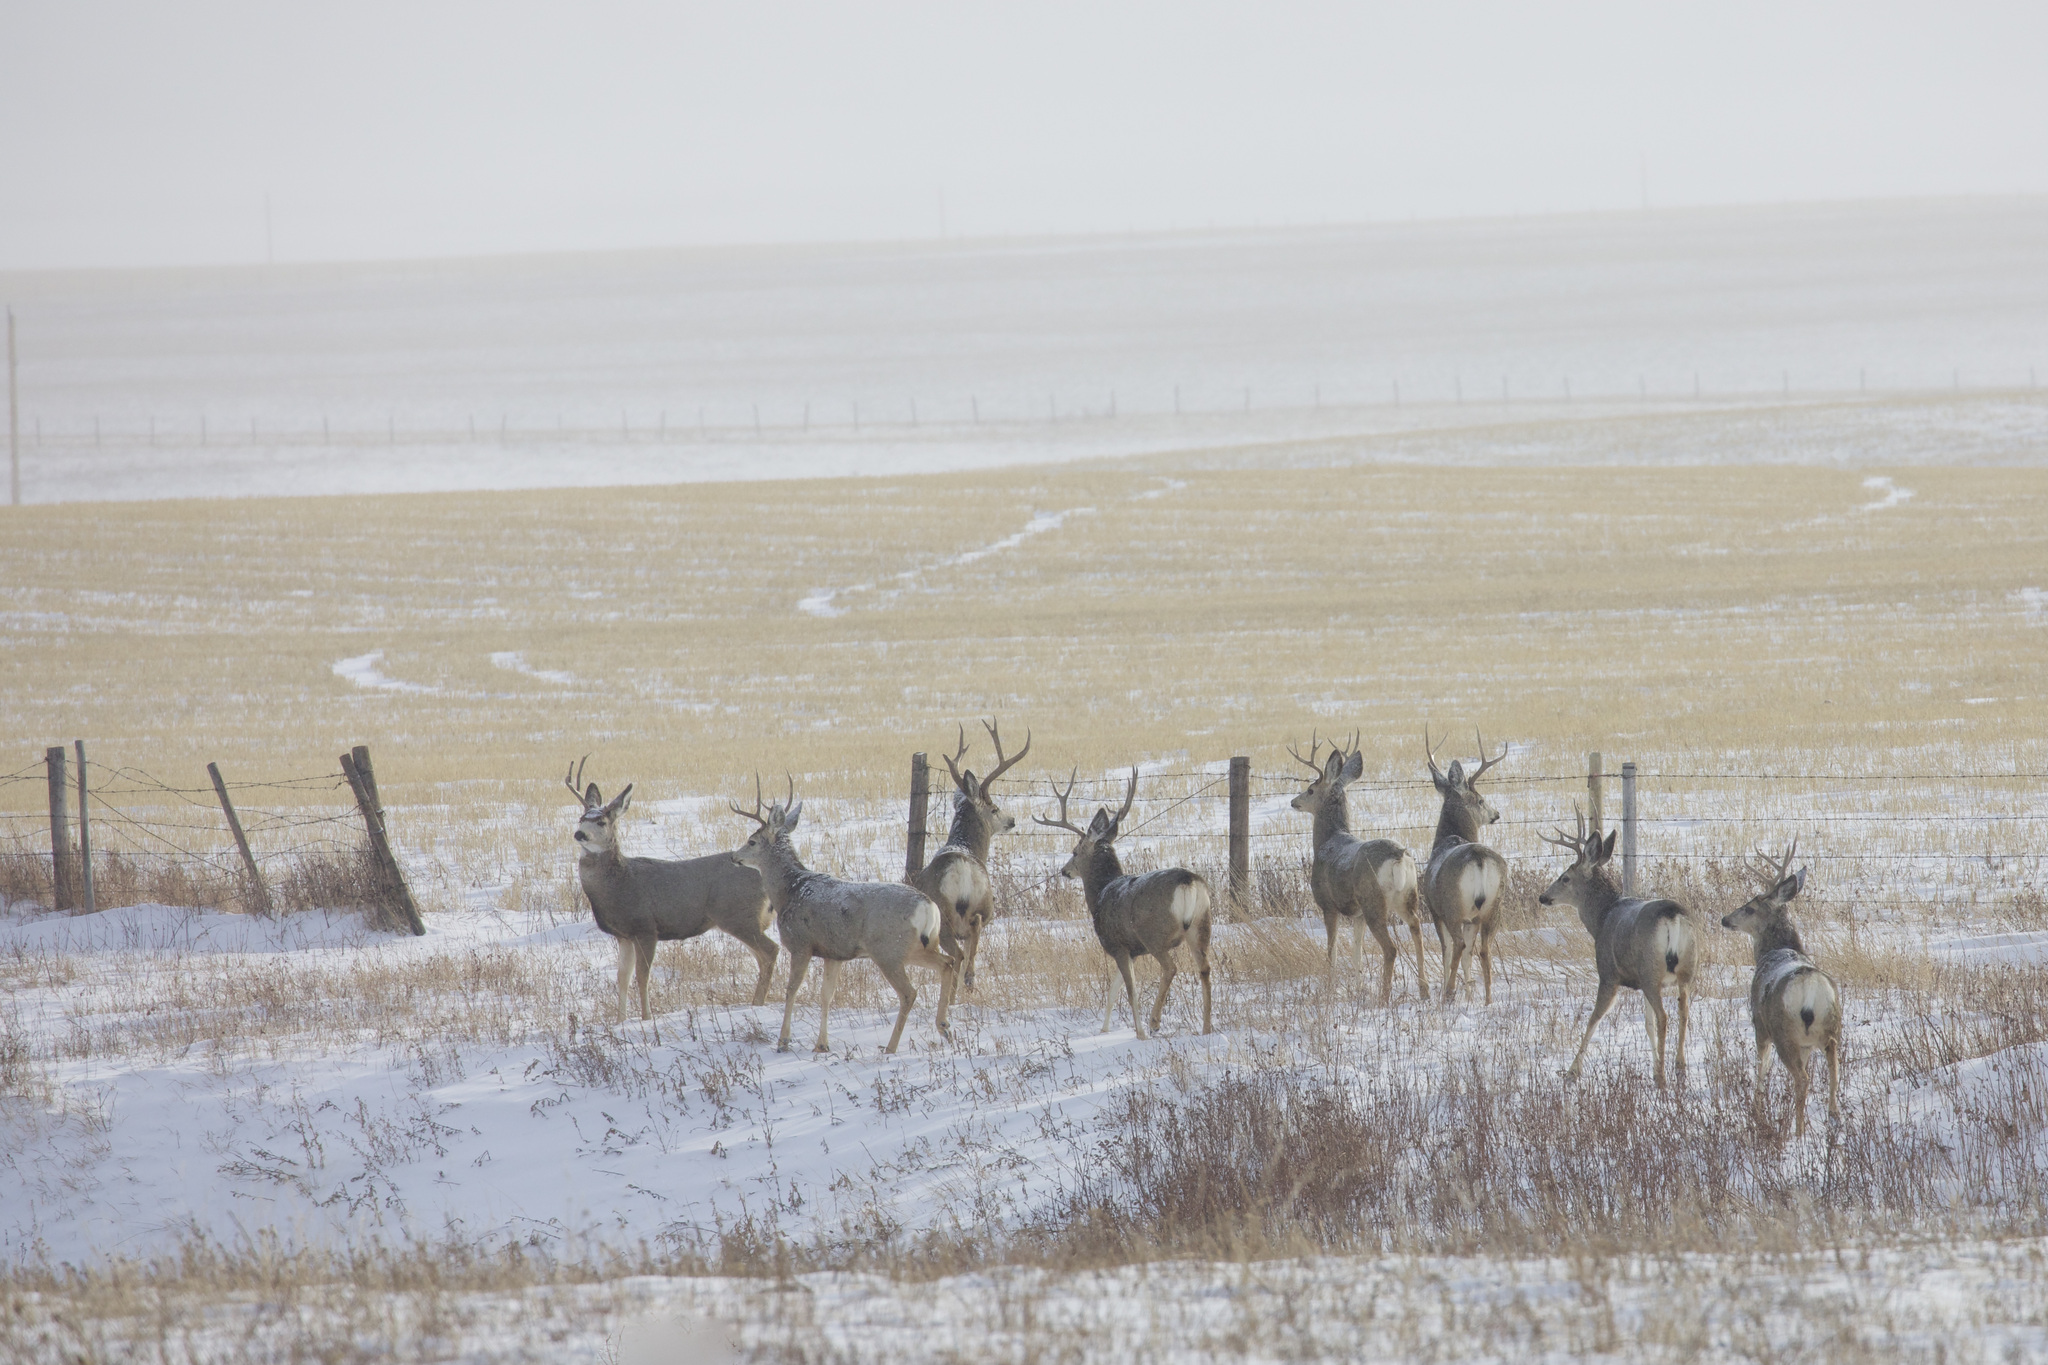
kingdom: Animalia
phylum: Chordata
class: Mammalia
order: Artiodactyla
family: Cervidae
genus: Odocoileus
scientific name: Odocoileus hemionus
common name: Mule deer
